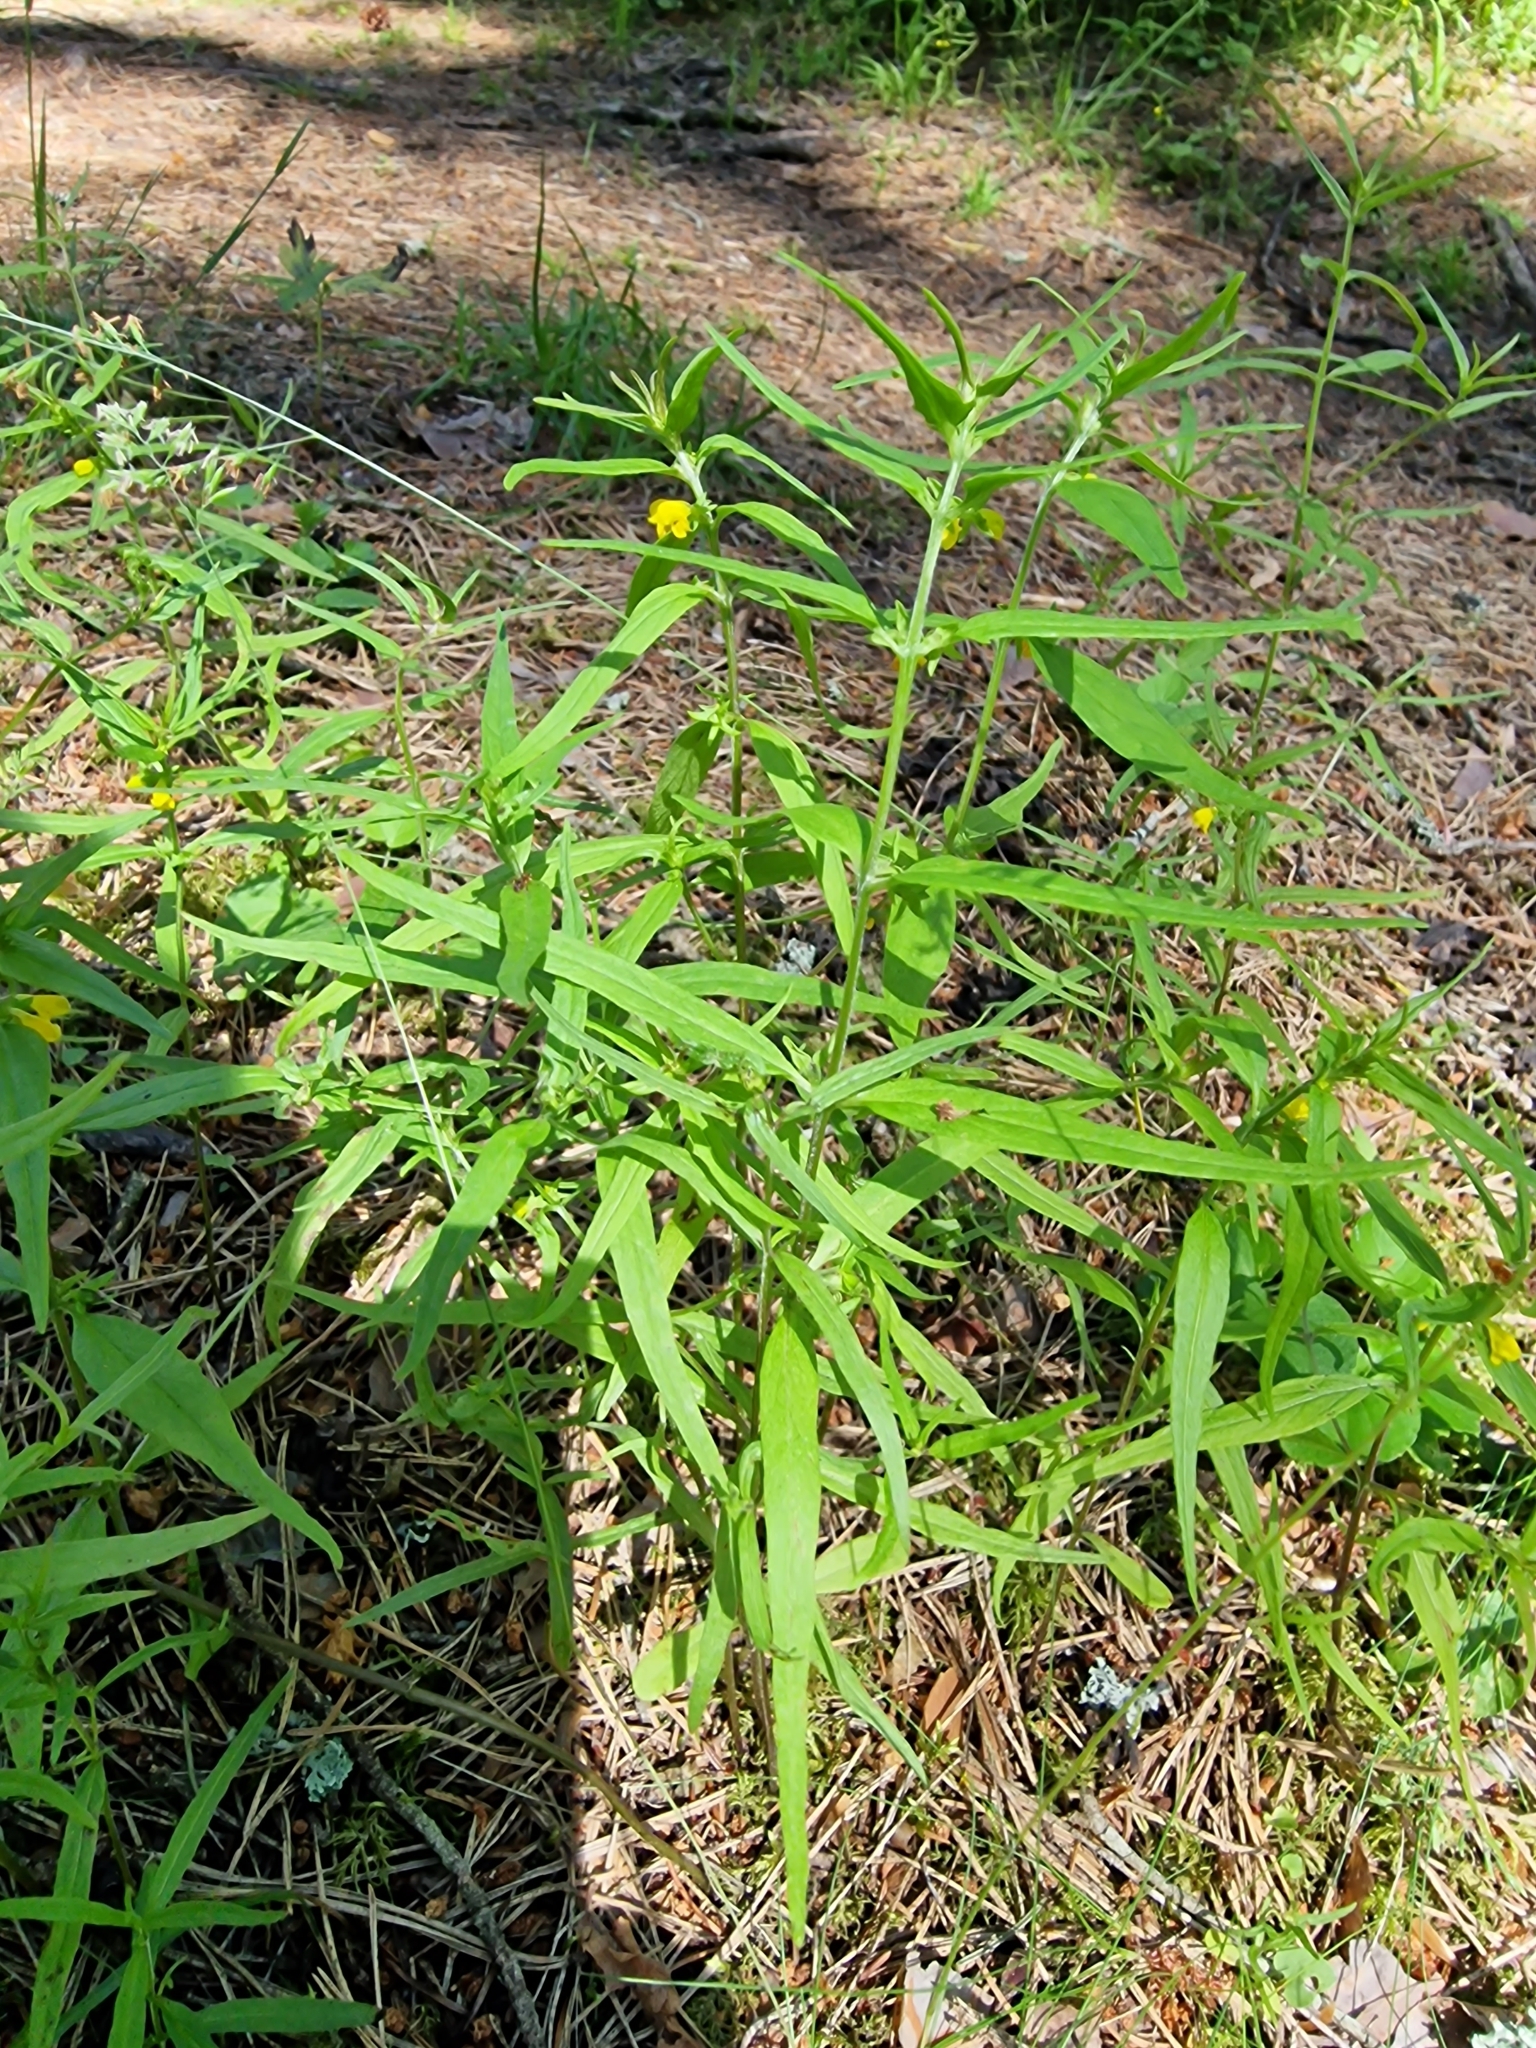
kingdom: Plantae
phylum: Tracheophyta
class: Magnoliopsida
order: Lamiales
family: Orobanchaceae
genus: Melampyrum
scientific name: Melampyrum sylvaticum
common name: Small cow-wheat
